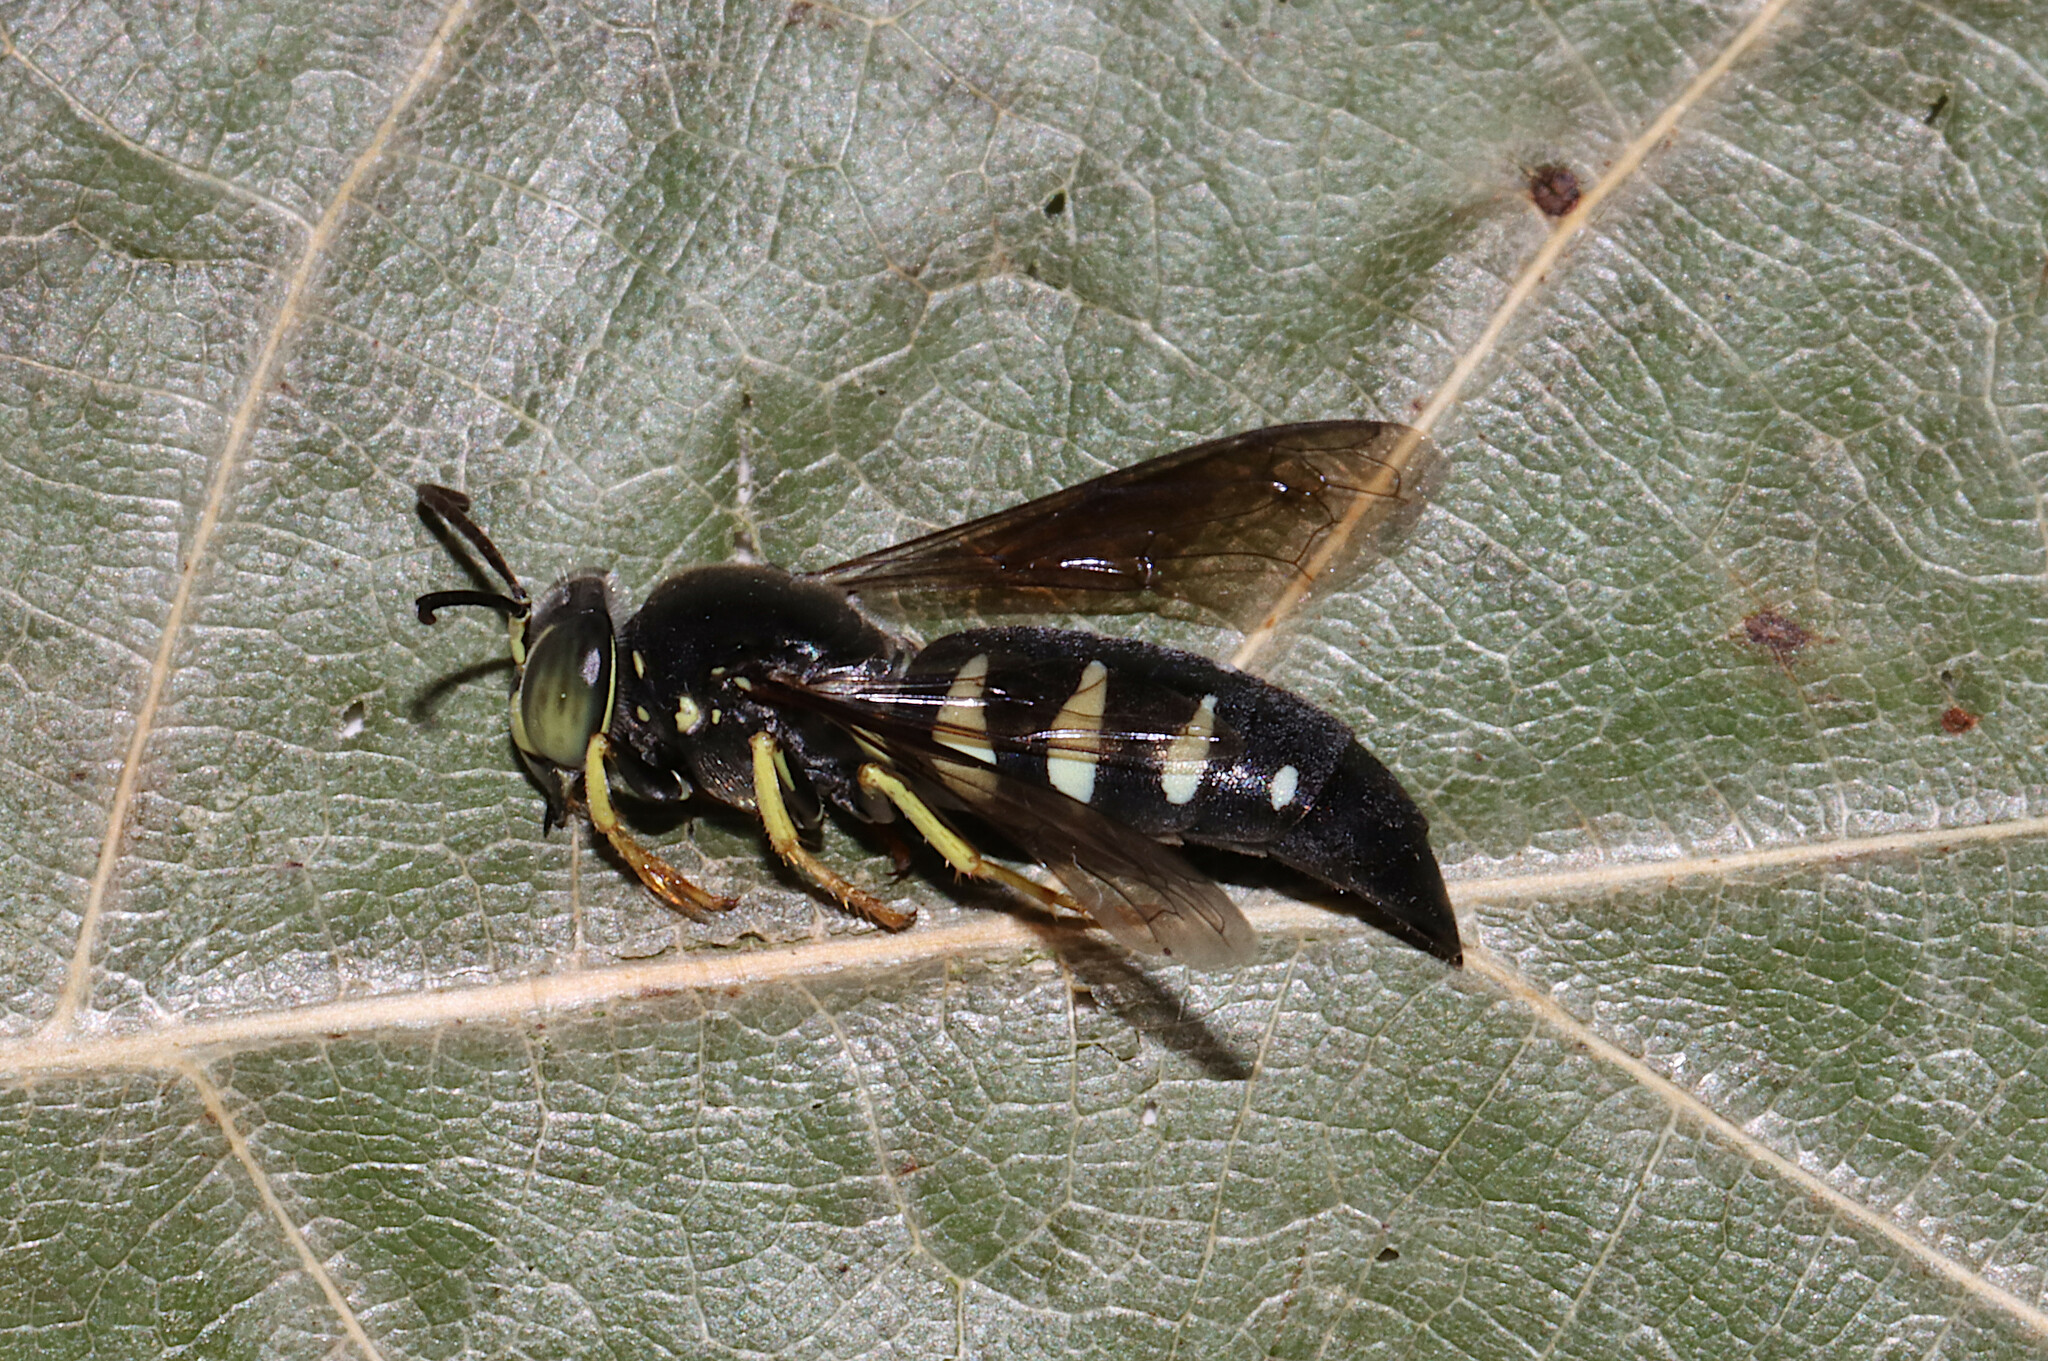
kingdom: Animalia
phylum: Arthropoda
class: Insecta
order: Hymenoptera
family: Crabronidae
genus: Bicyrtes
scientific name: Bicyrtes quadrifasciatus
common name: Four-banded stink bug hunter wasp
